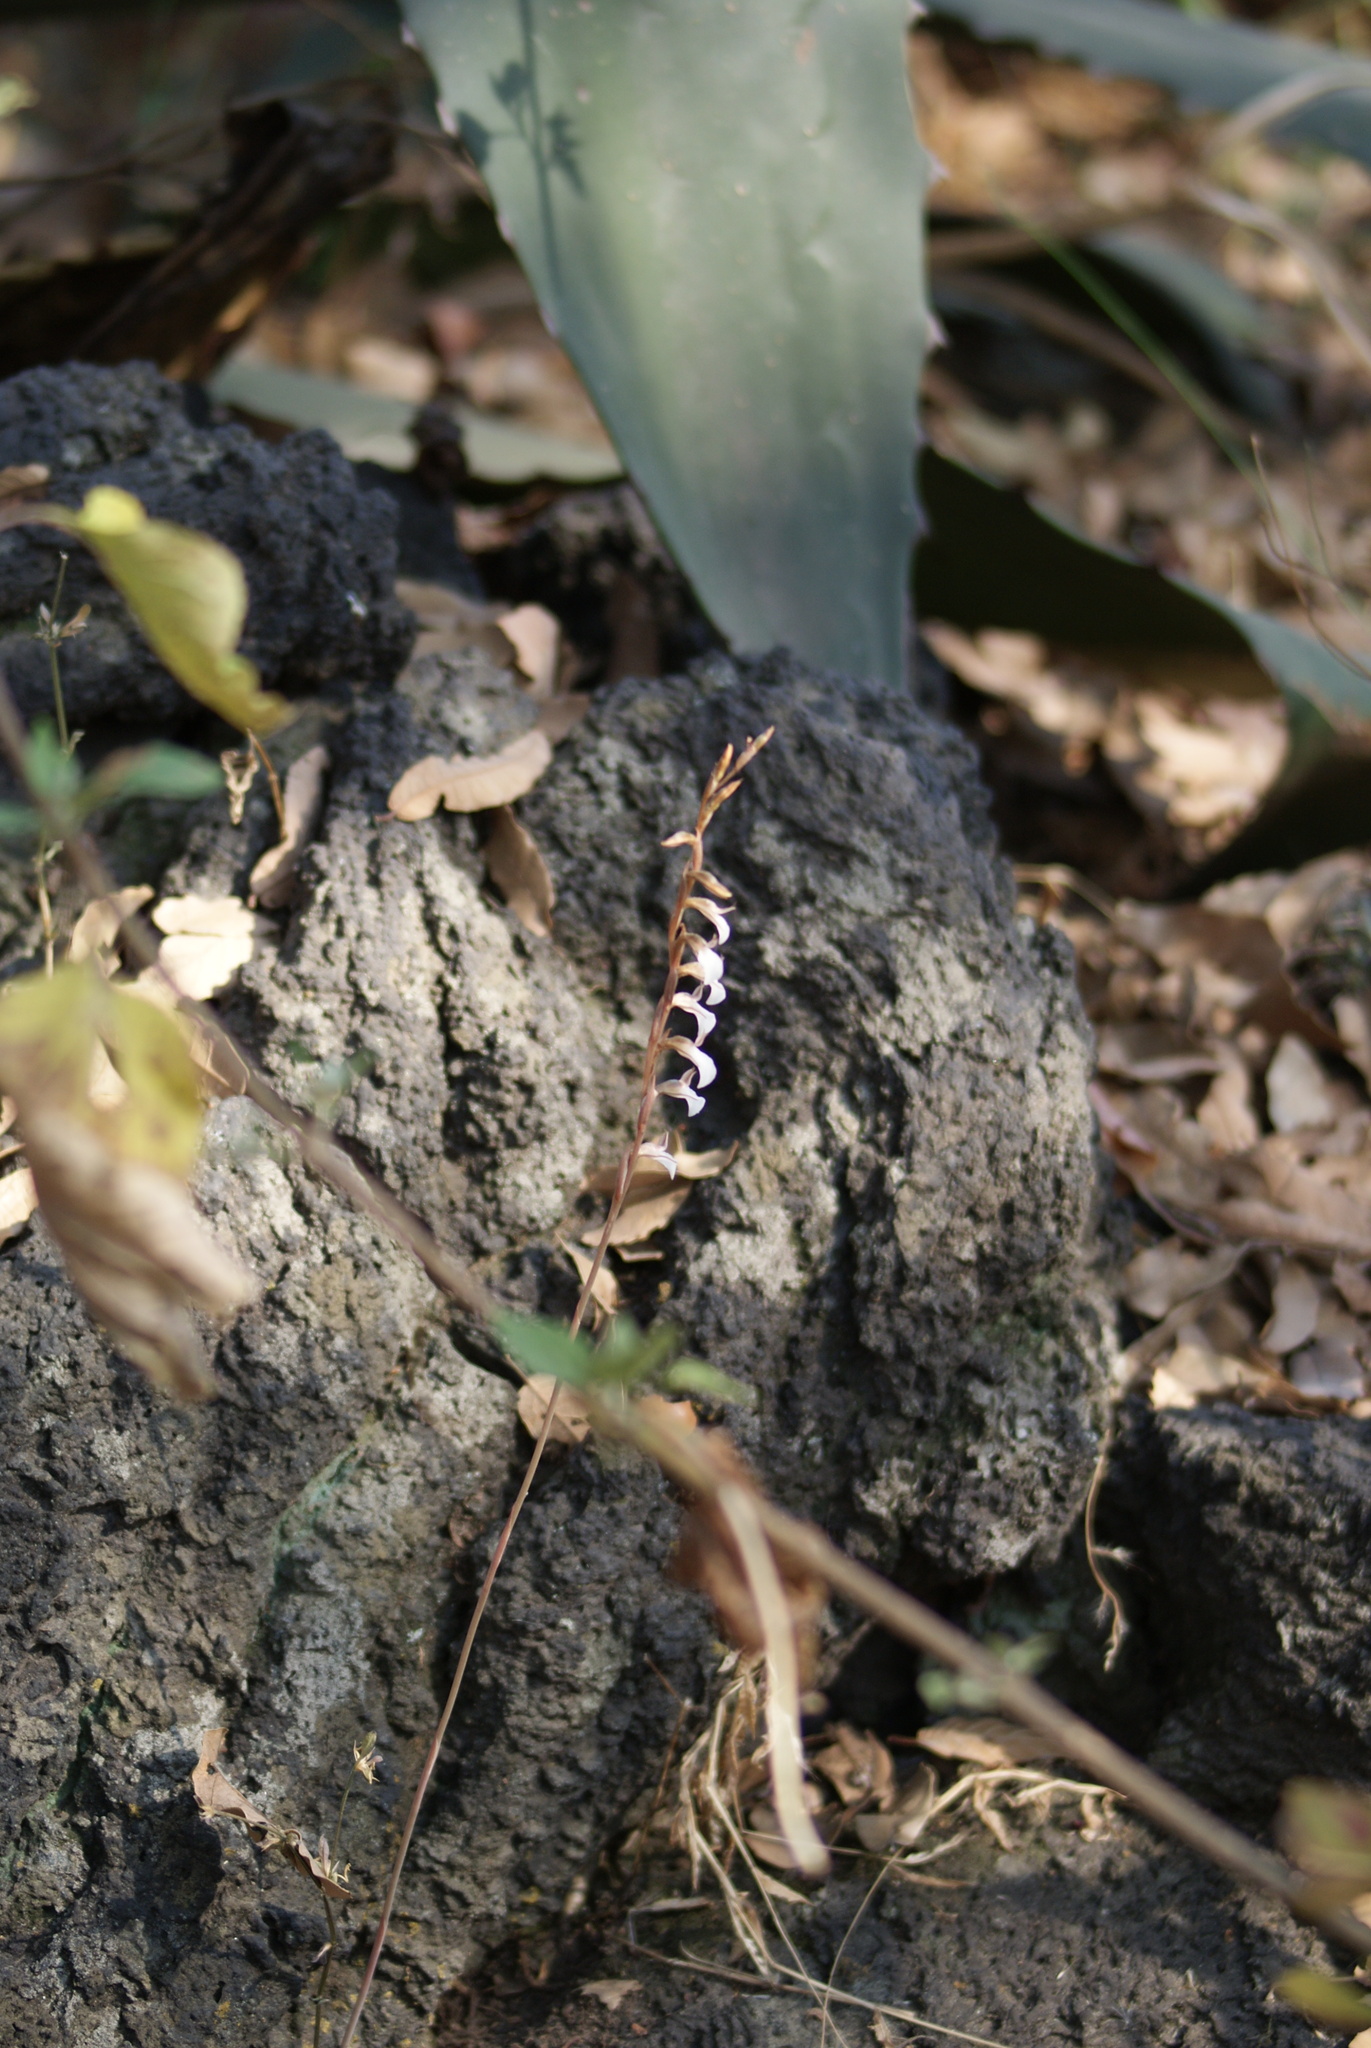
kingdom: Plantae
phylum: Tracheophyta
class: Liliopsida
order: Asparagales
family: Orchidaceae
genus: Greenwoodiella
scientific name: Greenwoodiella micrantha
